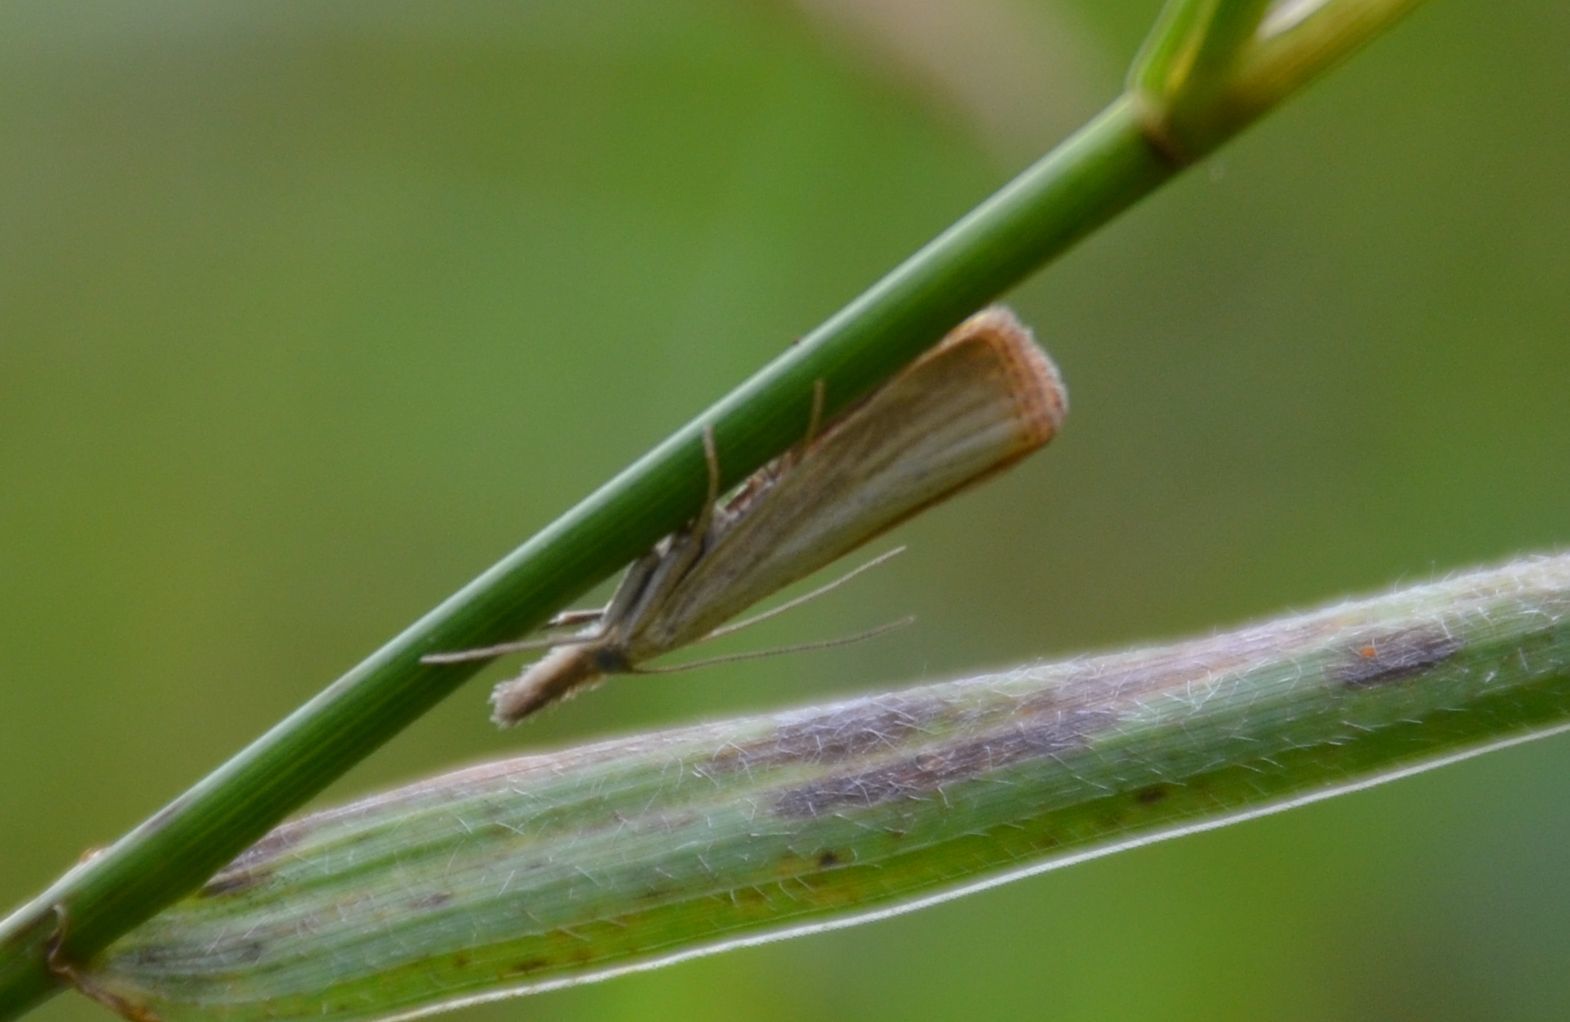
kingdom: Animalia
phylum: Arthropoda
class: Insecta
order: Lepidoptera
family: Crambidae
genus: Agriphila
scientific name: Agriphila straminella
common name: Straw grass-veneer
